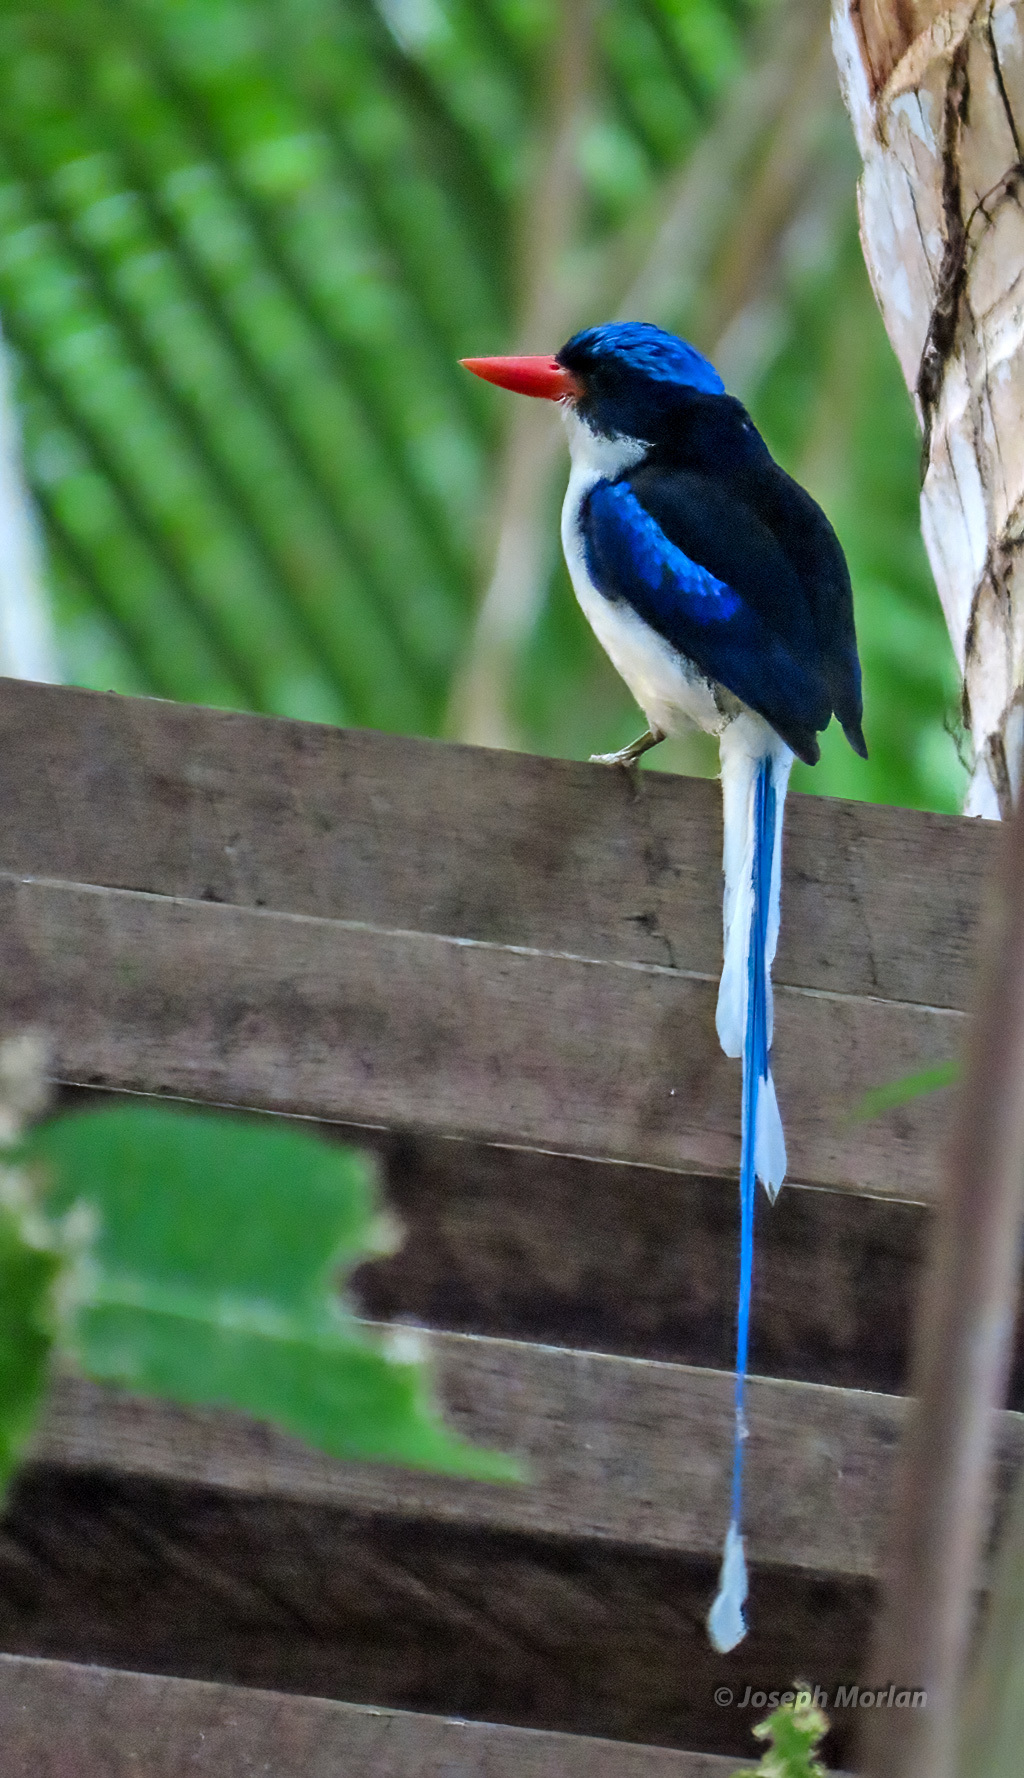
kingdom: Animalia
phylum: Chordata
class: Aves
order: Coraciiformes
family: Alcedinidae
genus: Tanysiptera
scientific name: Tanysiptera galatea
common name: Common paradise-kingfisher
